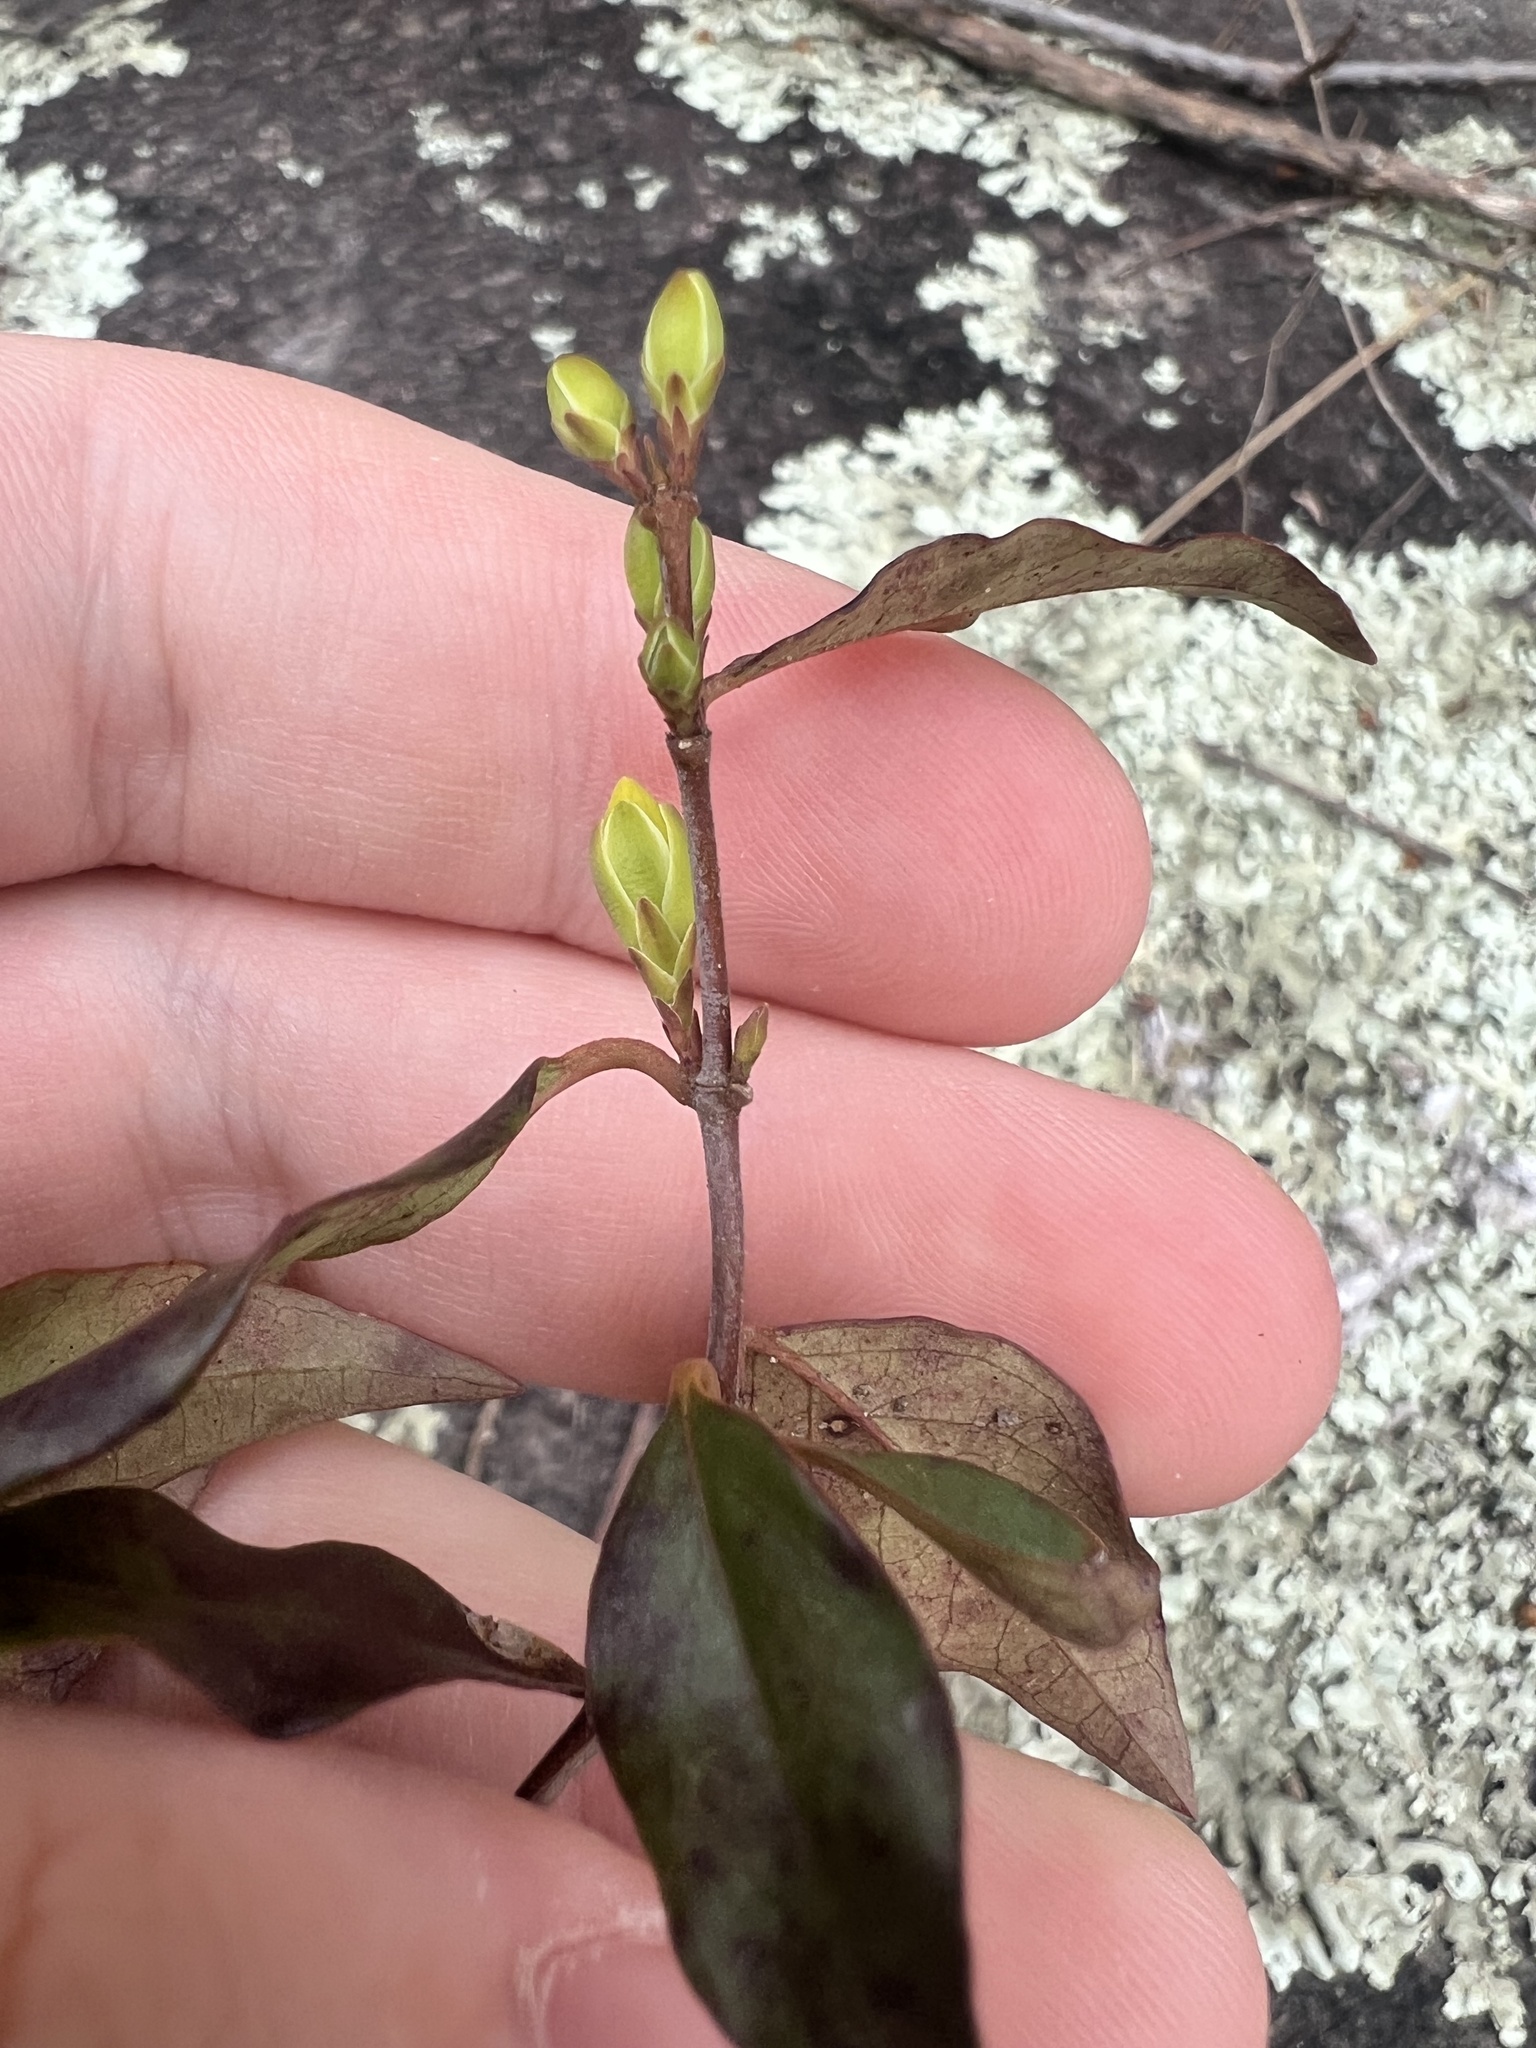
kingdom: Plantae
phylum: Tracheophyta
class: Magnoliopsida
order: Gentianales
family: Gelsemiaceae
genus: Gelsemium
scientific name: Gelsemium sempervirens
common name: Carolina-jasmine
